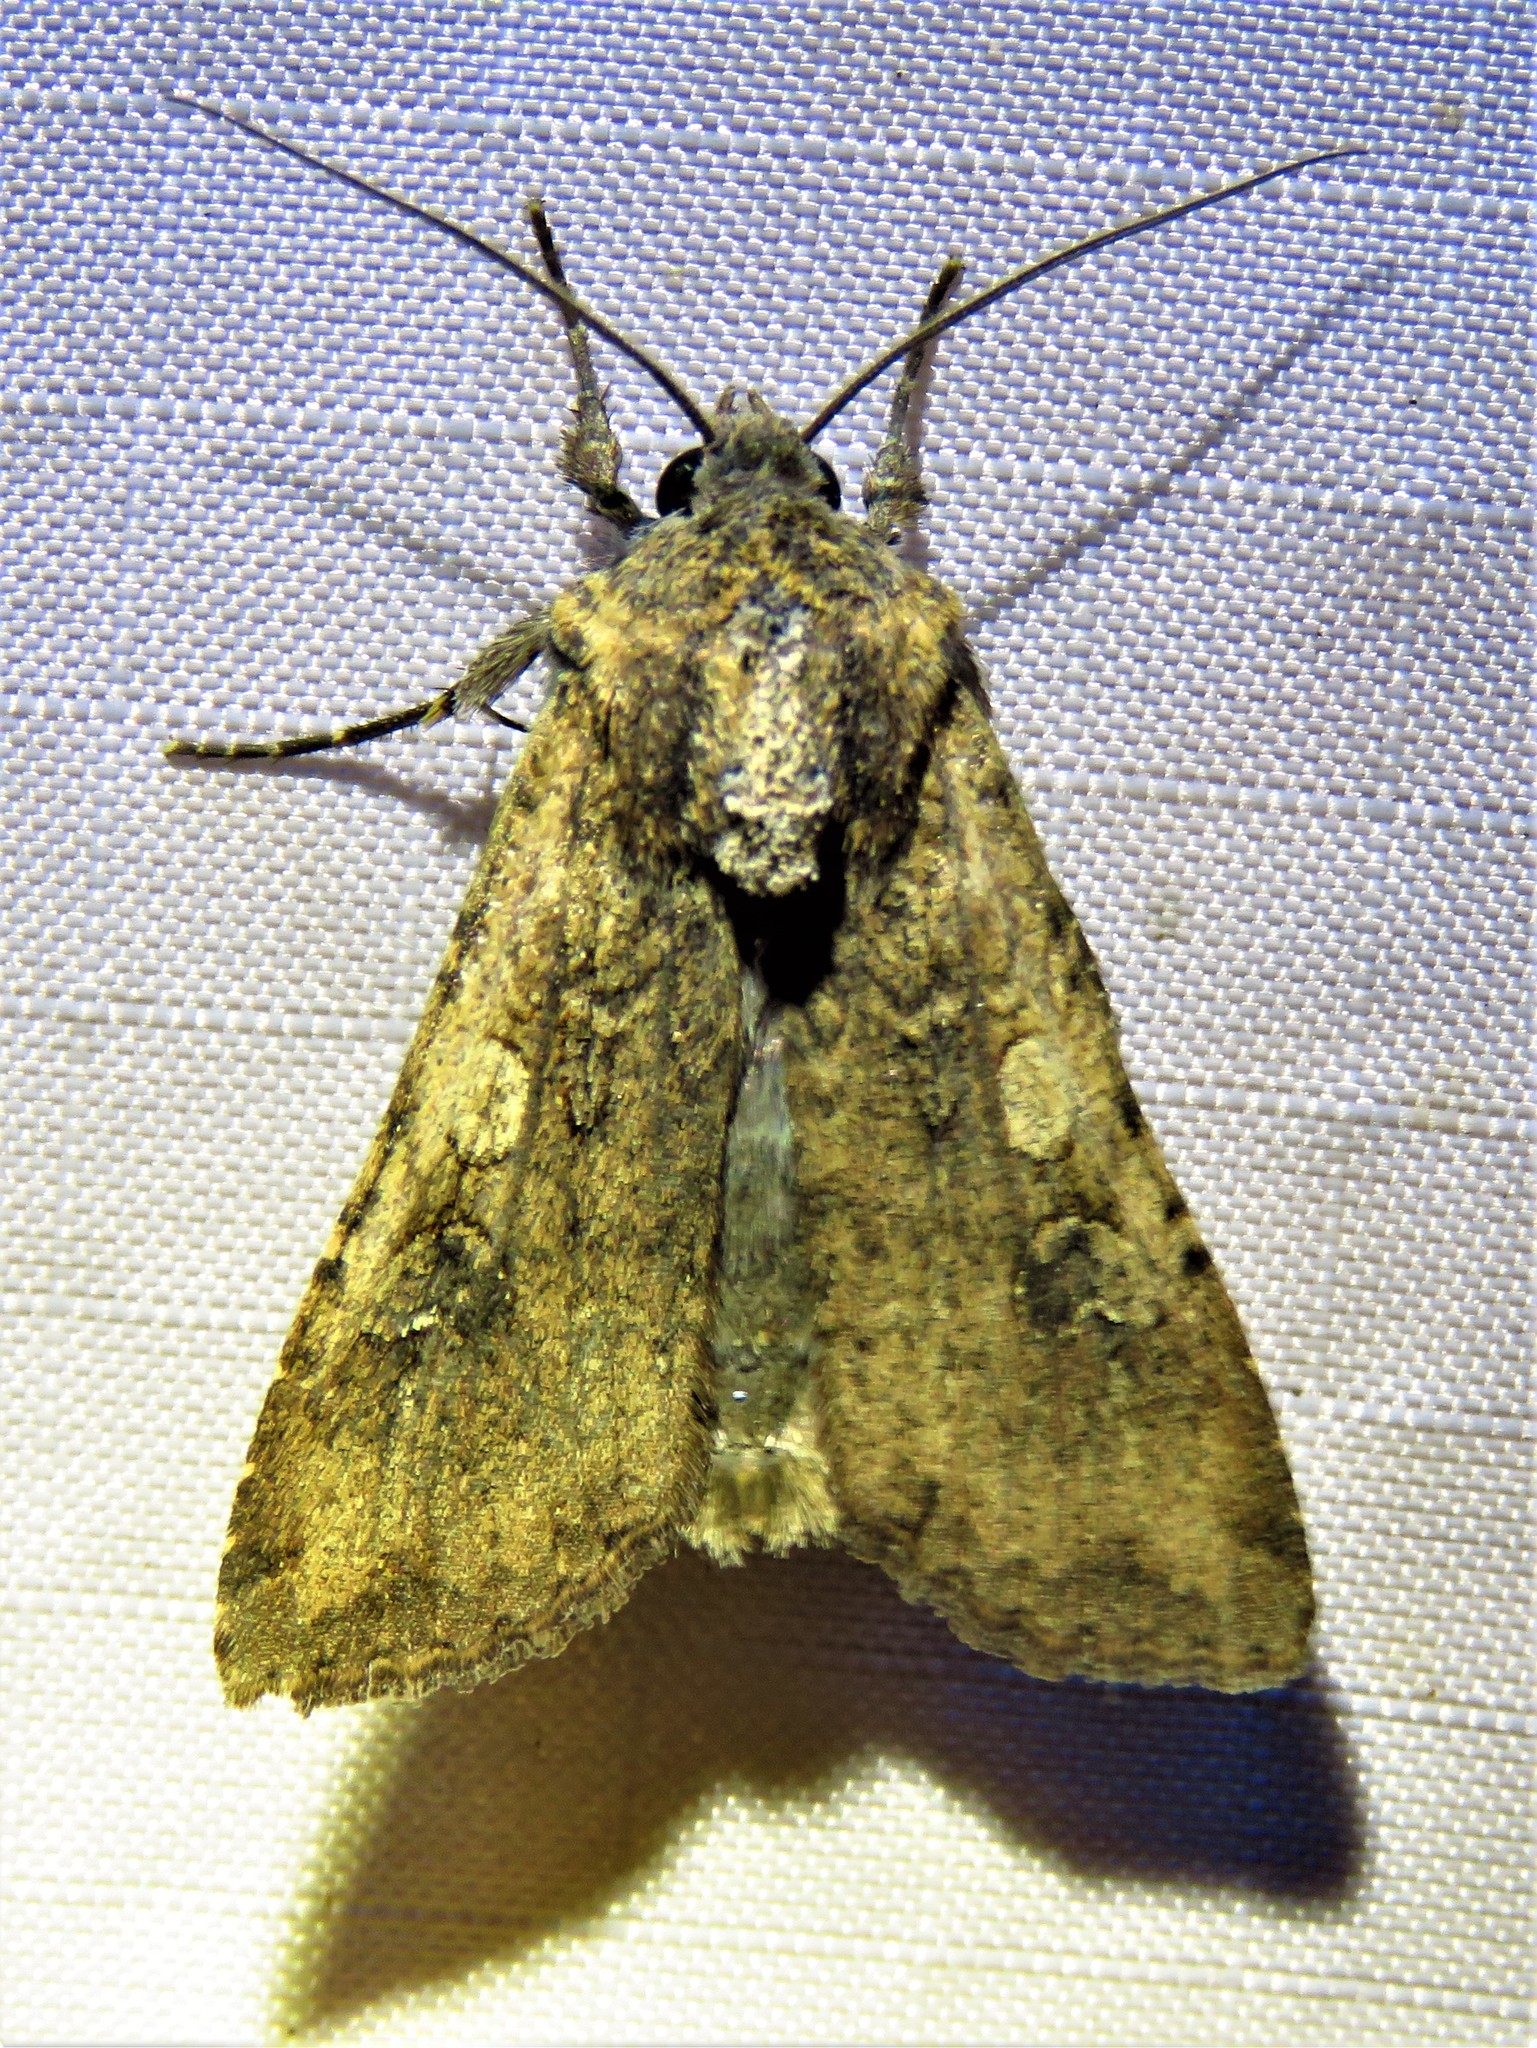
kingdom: Animalia
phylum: Arthropoda
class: Insecta
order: Lepidoptera
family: Noctuidae
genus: Peridroma
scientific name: Peridroma saucia
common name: Pearly underwing
